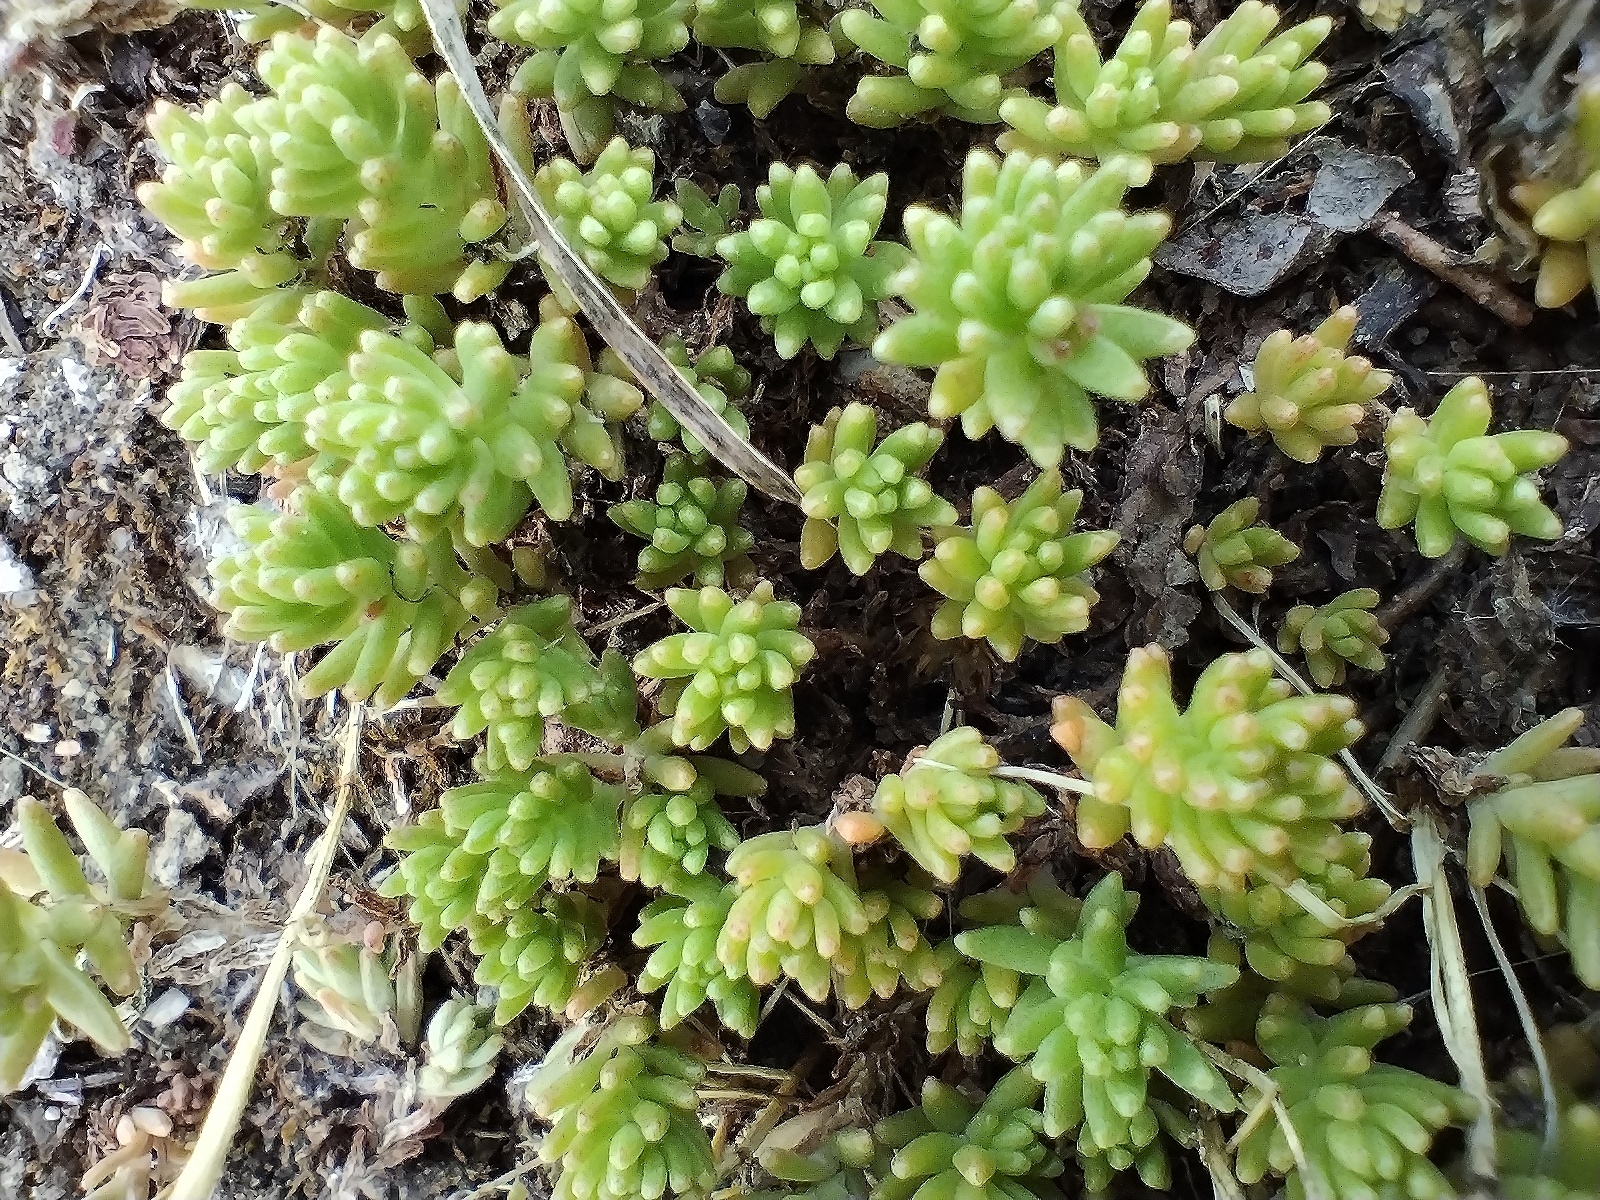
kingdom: Plantae
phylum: Tracheophyta
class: Magnoliopsida
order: Saxifragales
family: Crassulaceae
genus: Sedum
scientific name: Sedum sexangulare
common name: Tasteless stonecrop
